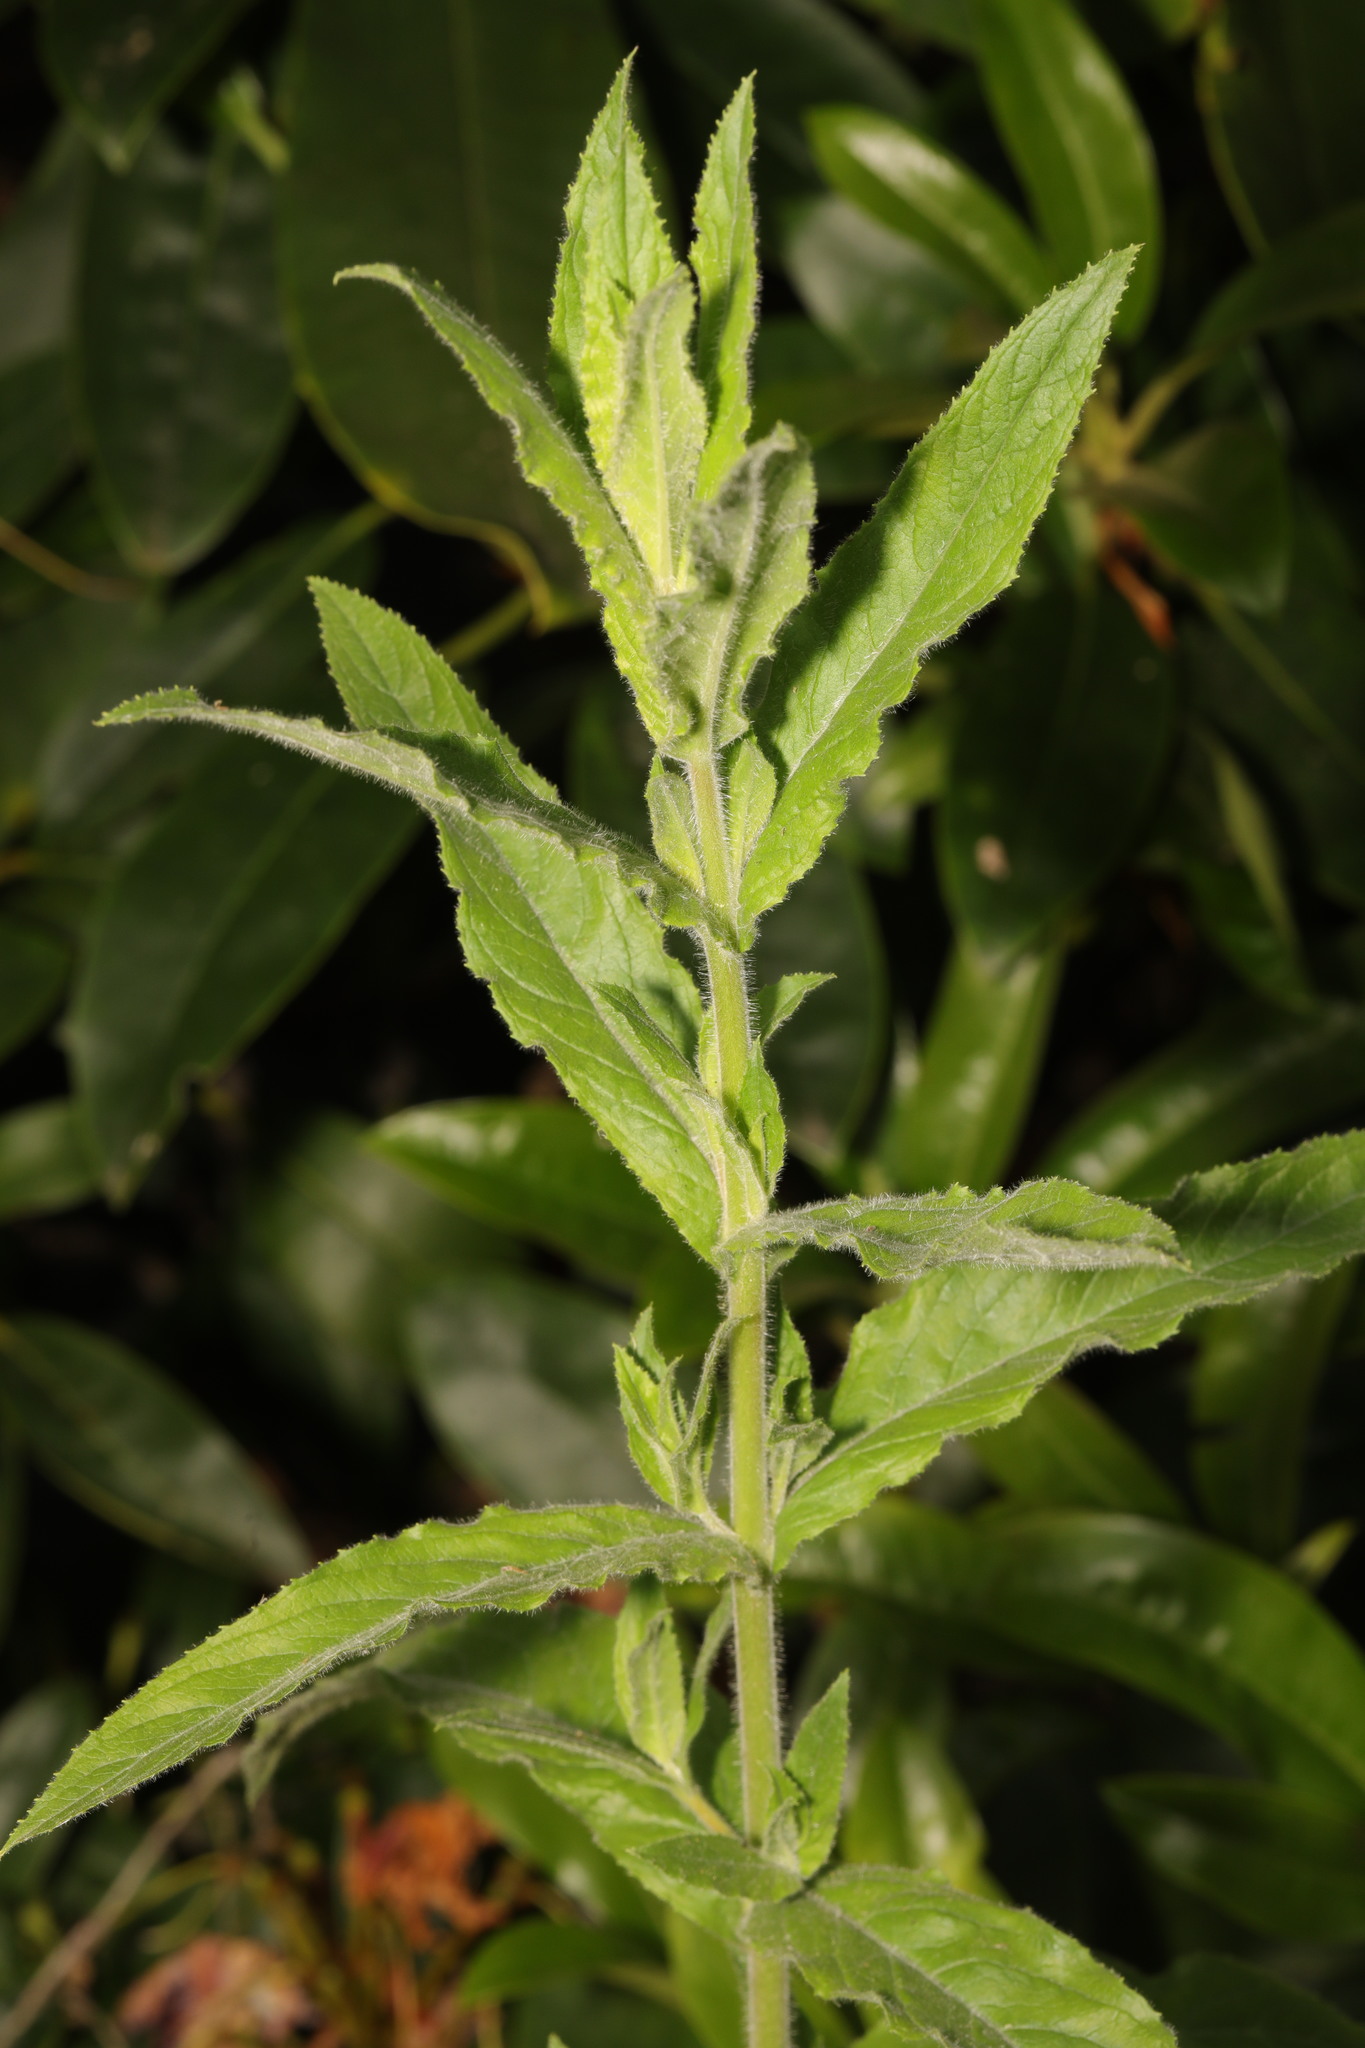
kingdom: Plantae
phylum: Tracheophyta
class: Magnoliopsida
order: Myrtales
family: Onagraceae
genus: Epilobium
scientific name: Epilobium hirsutum
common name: Great willowherb
